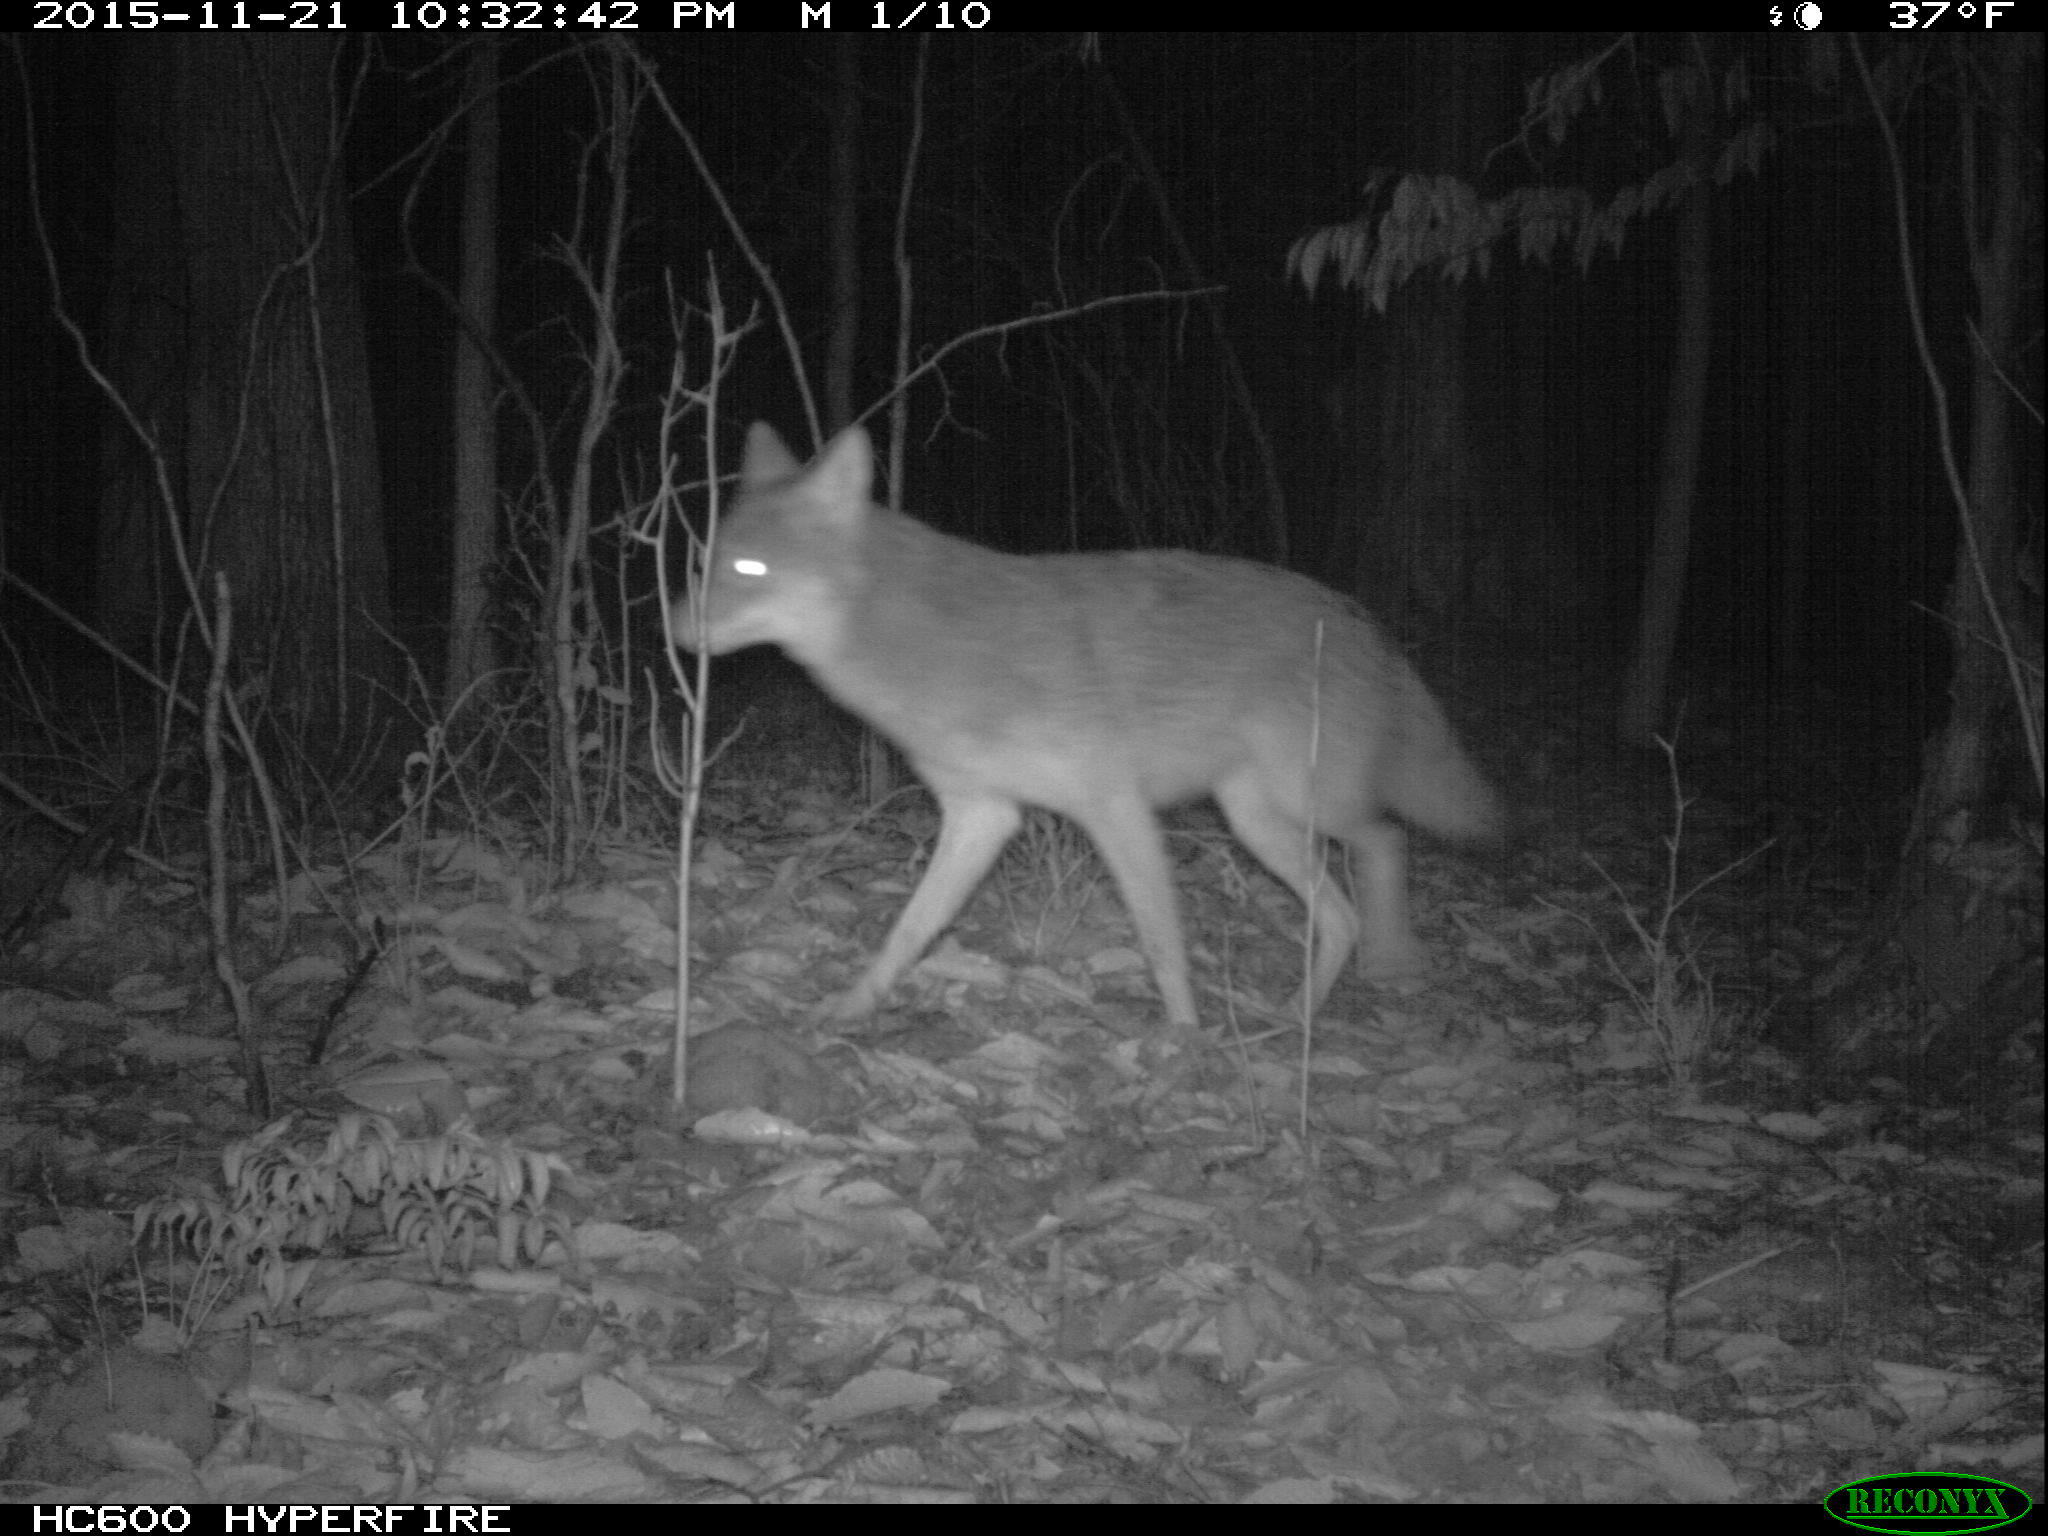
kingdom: Animalia
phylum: Chordata
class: Mammalia
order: Carnivora
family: Canidae
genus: Canis
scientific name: Canis latrans
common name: Coyote
